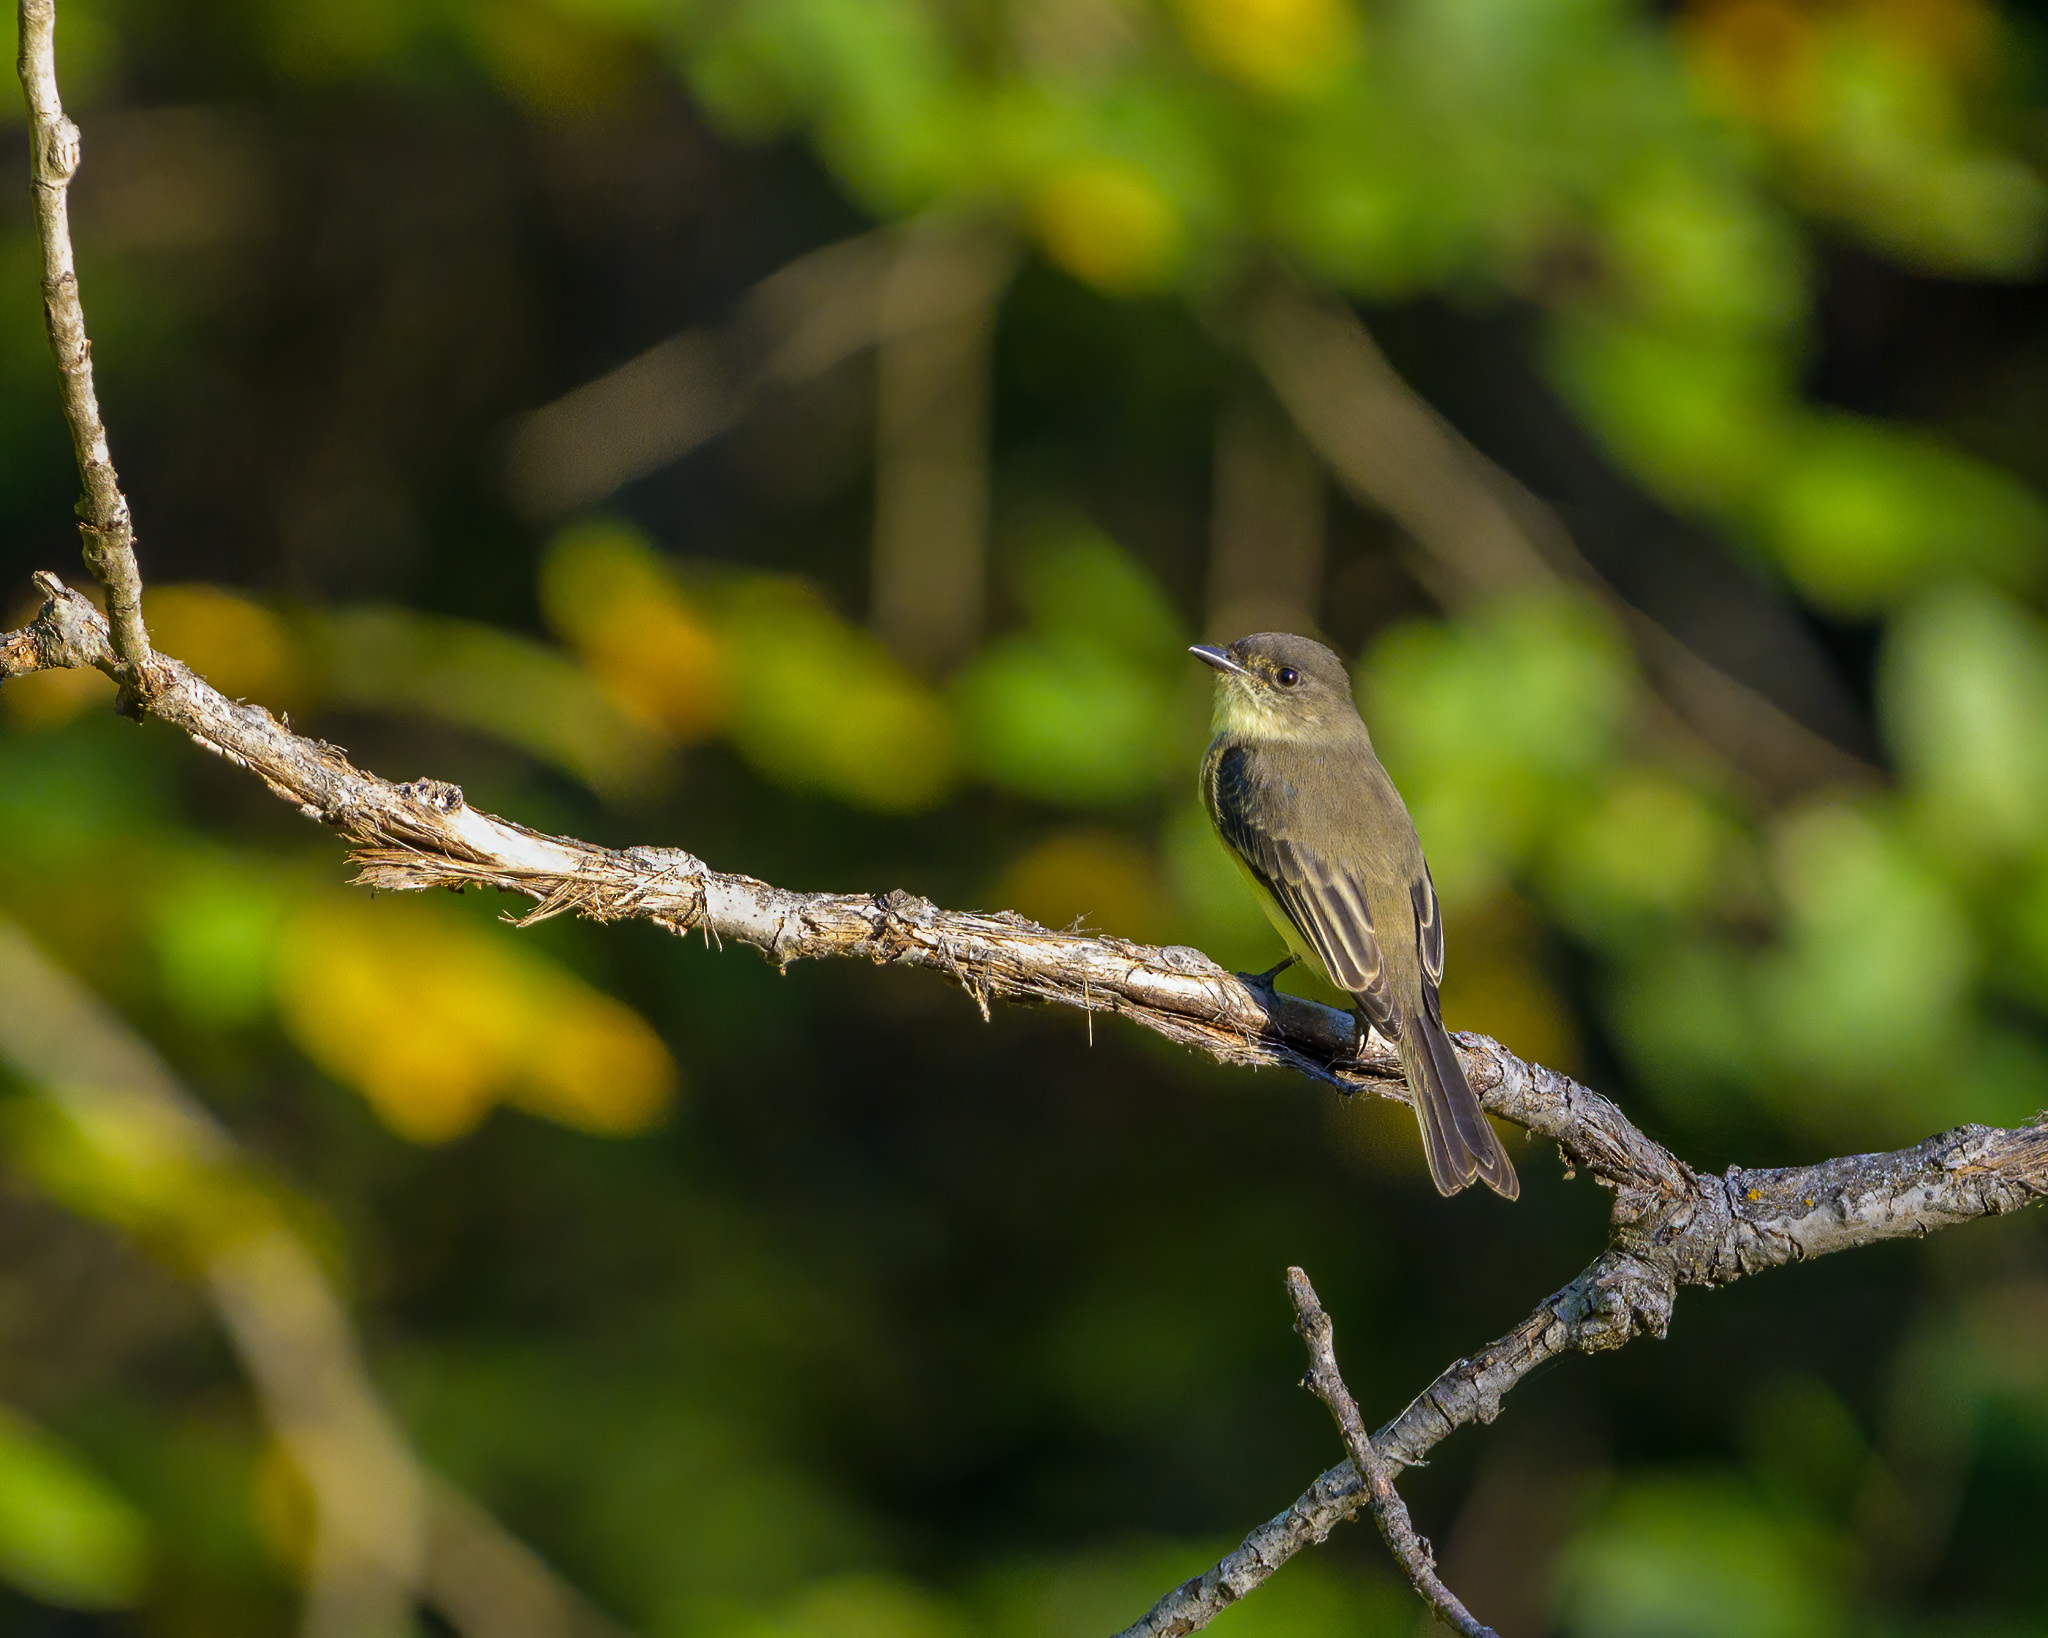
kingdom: Animalia
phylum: Chordata
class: Aves
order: Passeriformes
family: Tyrannidae
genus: Sayornis
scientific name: Sayornis phoebe
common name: Eastern phoebe
